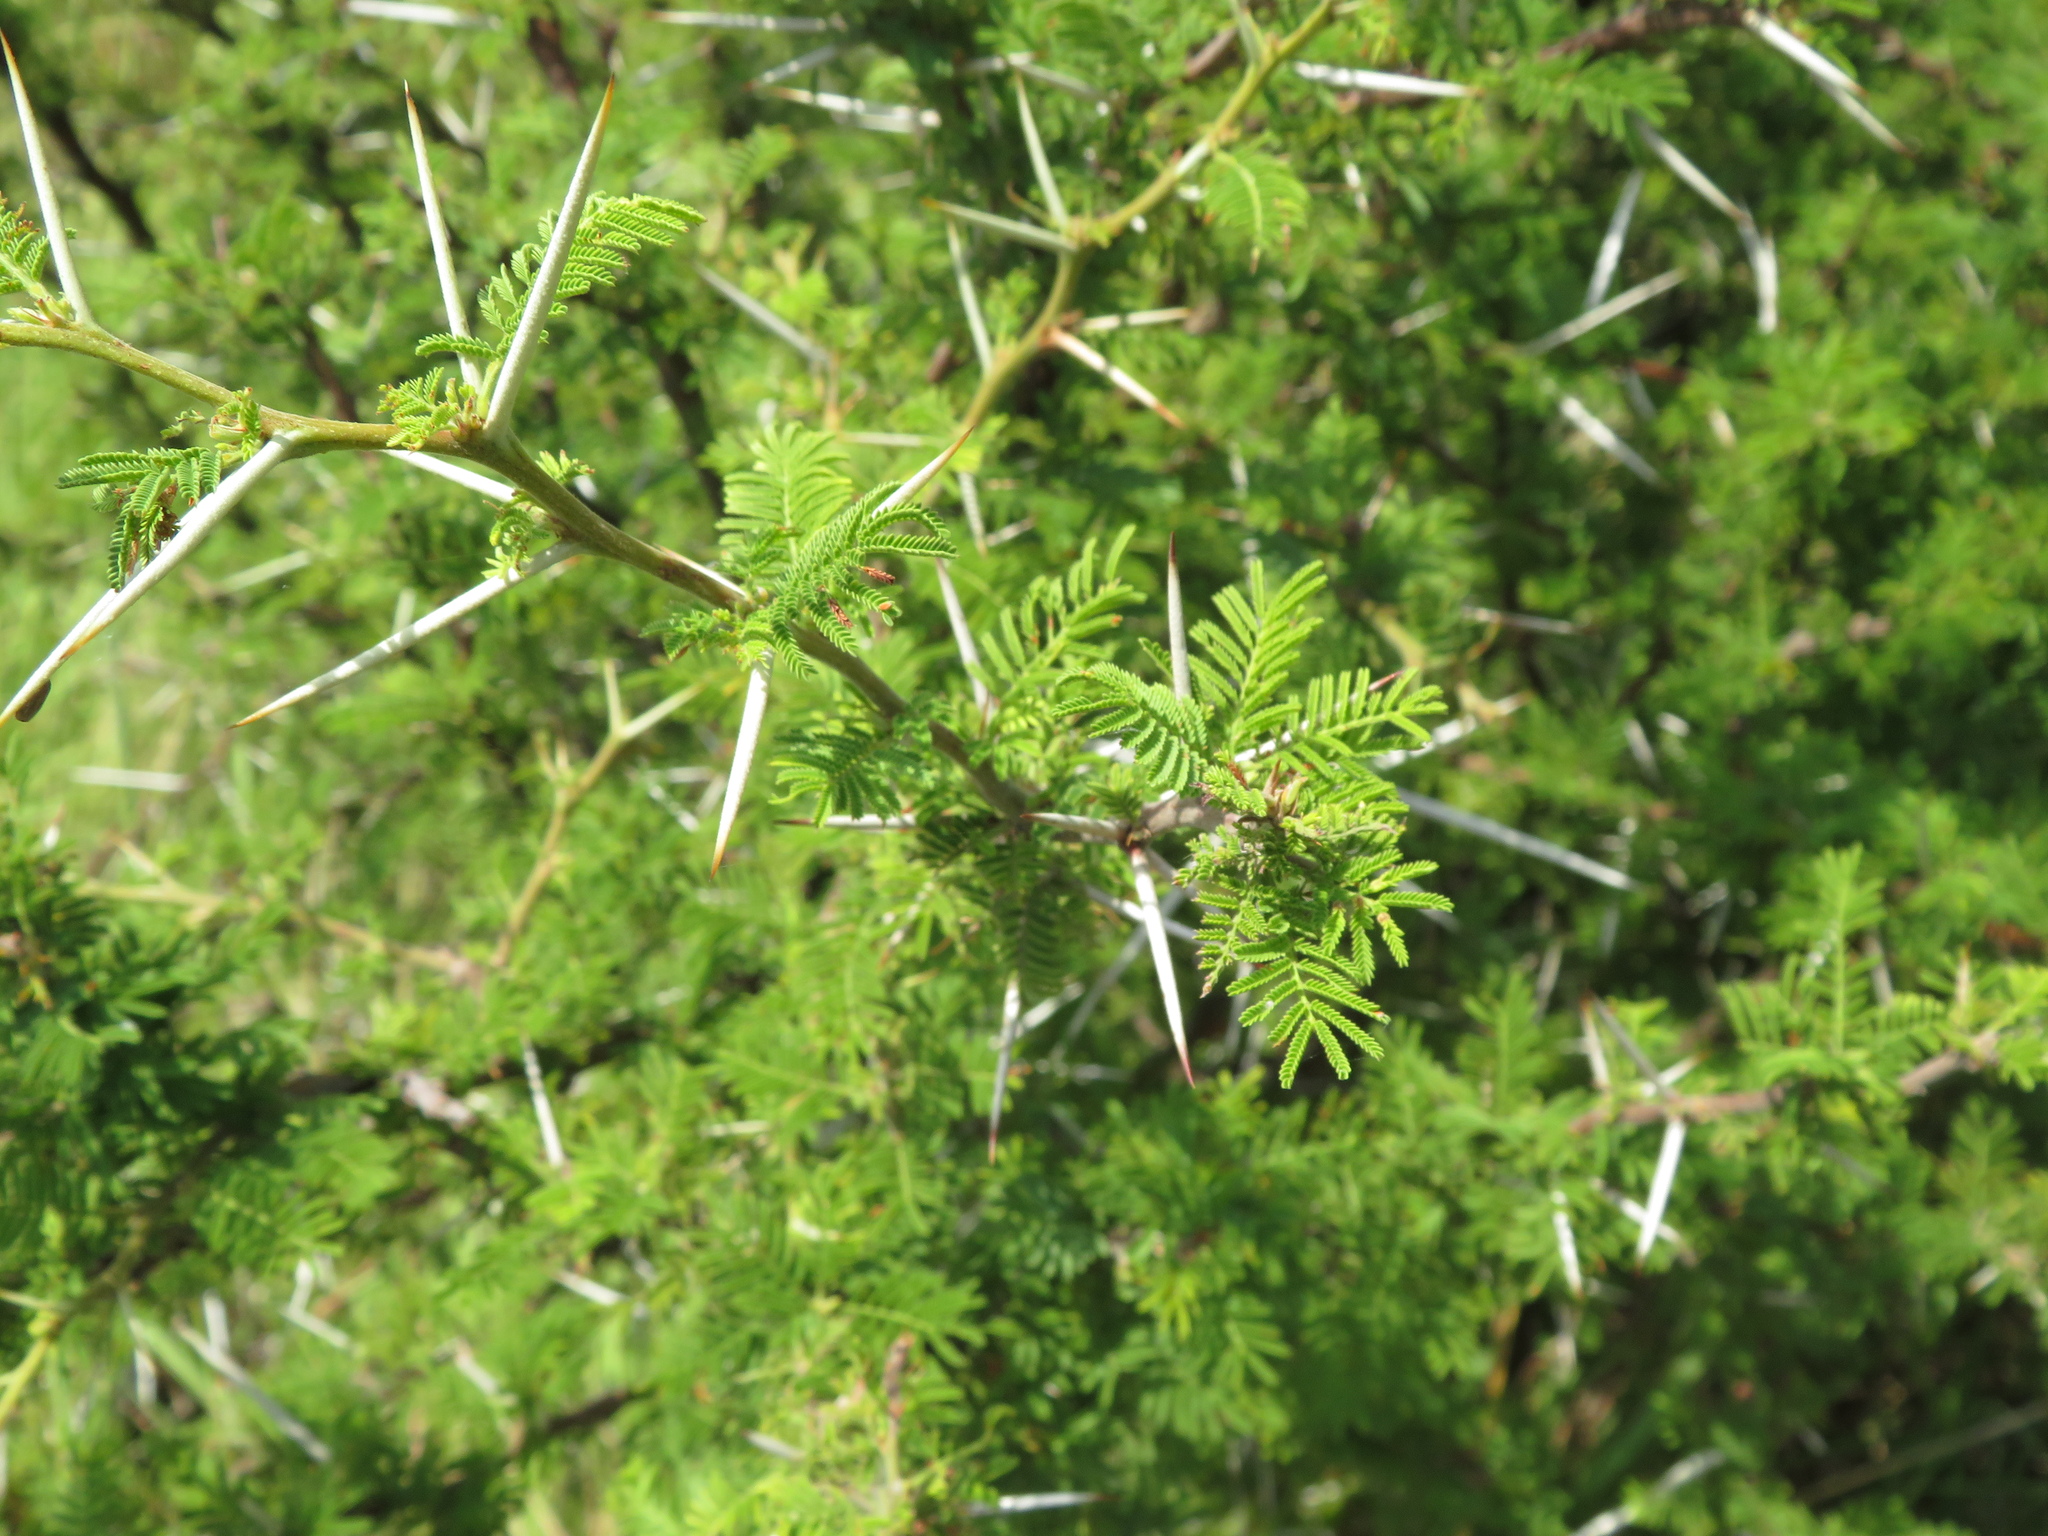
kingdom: Plantae
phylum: Tracheophyta
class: Magnoliopsida
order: Fabales
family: Fabaceae
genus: Vachellia
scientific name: Vachellia caven
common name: Roman cassie
